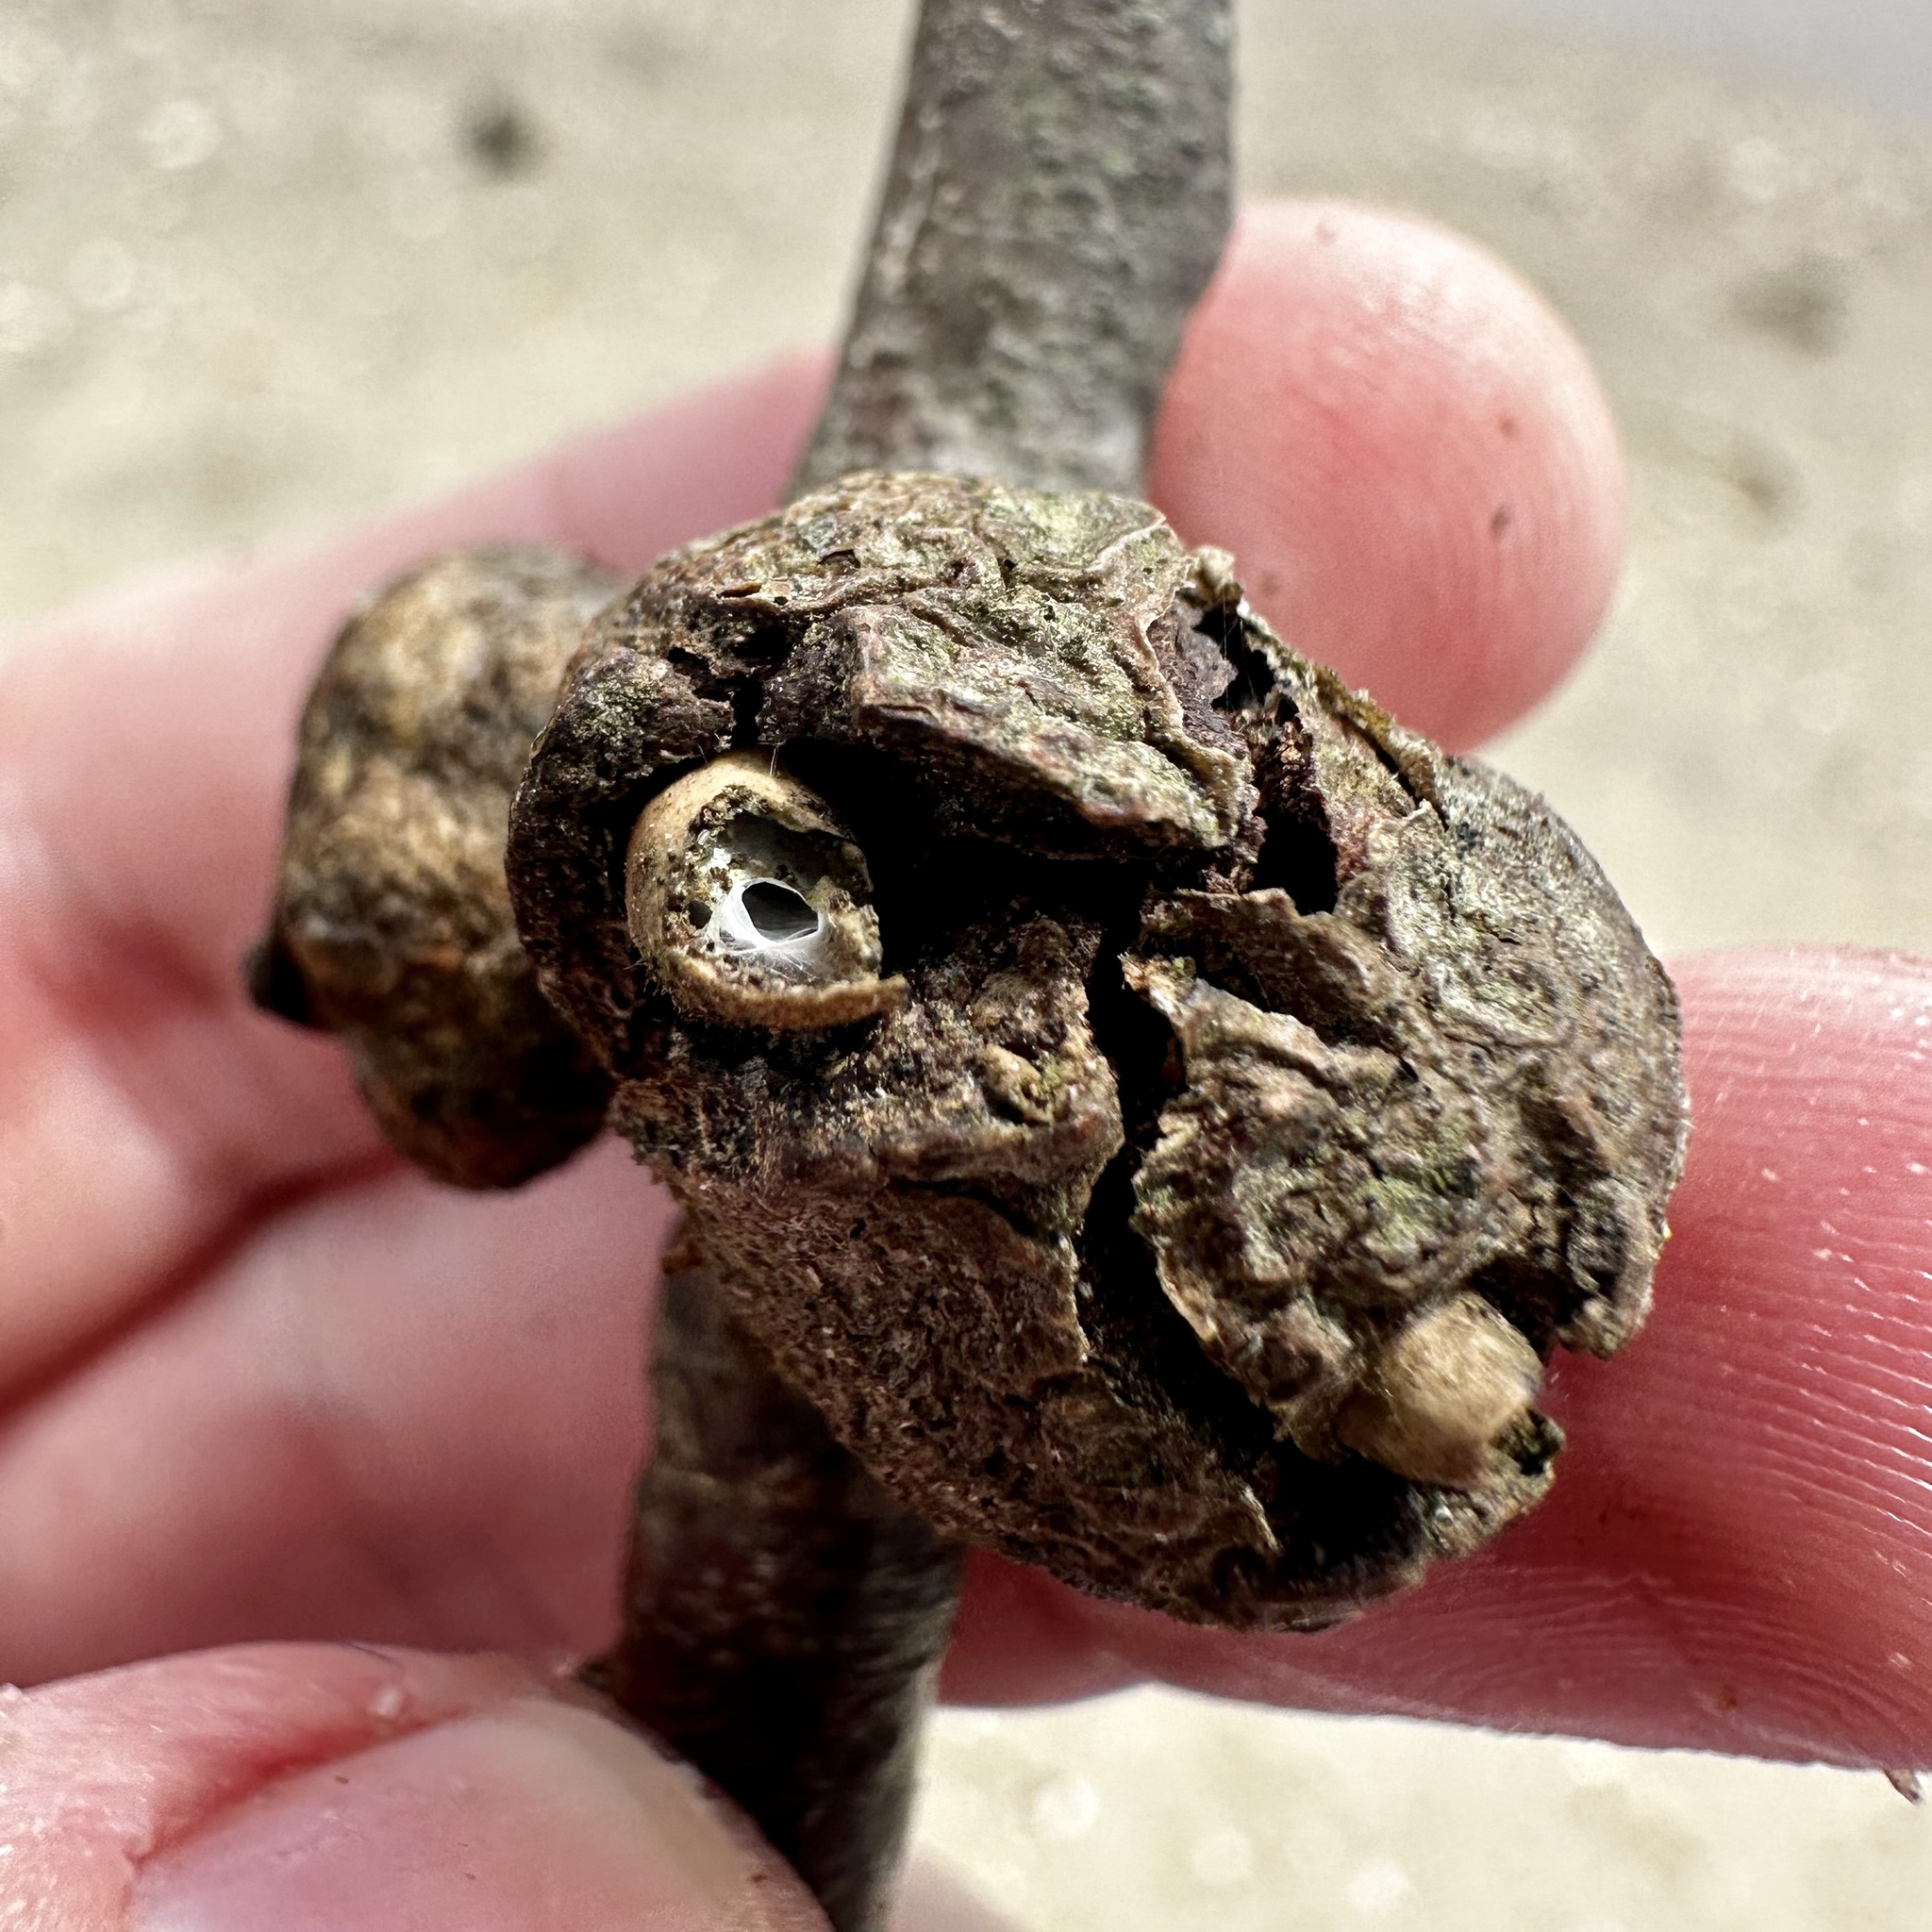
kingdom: Animalia
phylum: Arthropoda
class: Insecta
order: Hymenoptera
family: Cynipidae
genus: Callirhytis
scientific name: Callirhytis
